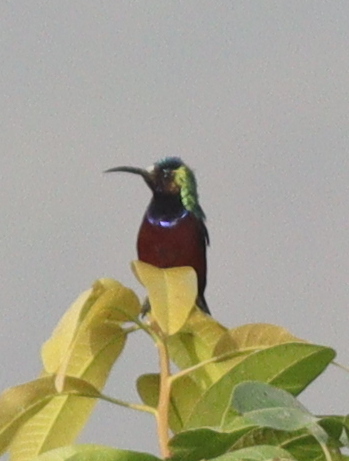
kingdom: Animalia
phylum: Chordata
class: Aves
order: Passeriformes
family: Nectariniidae
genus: Cinnyris
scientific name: Cinnyris superbus
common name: Superb sunbird
